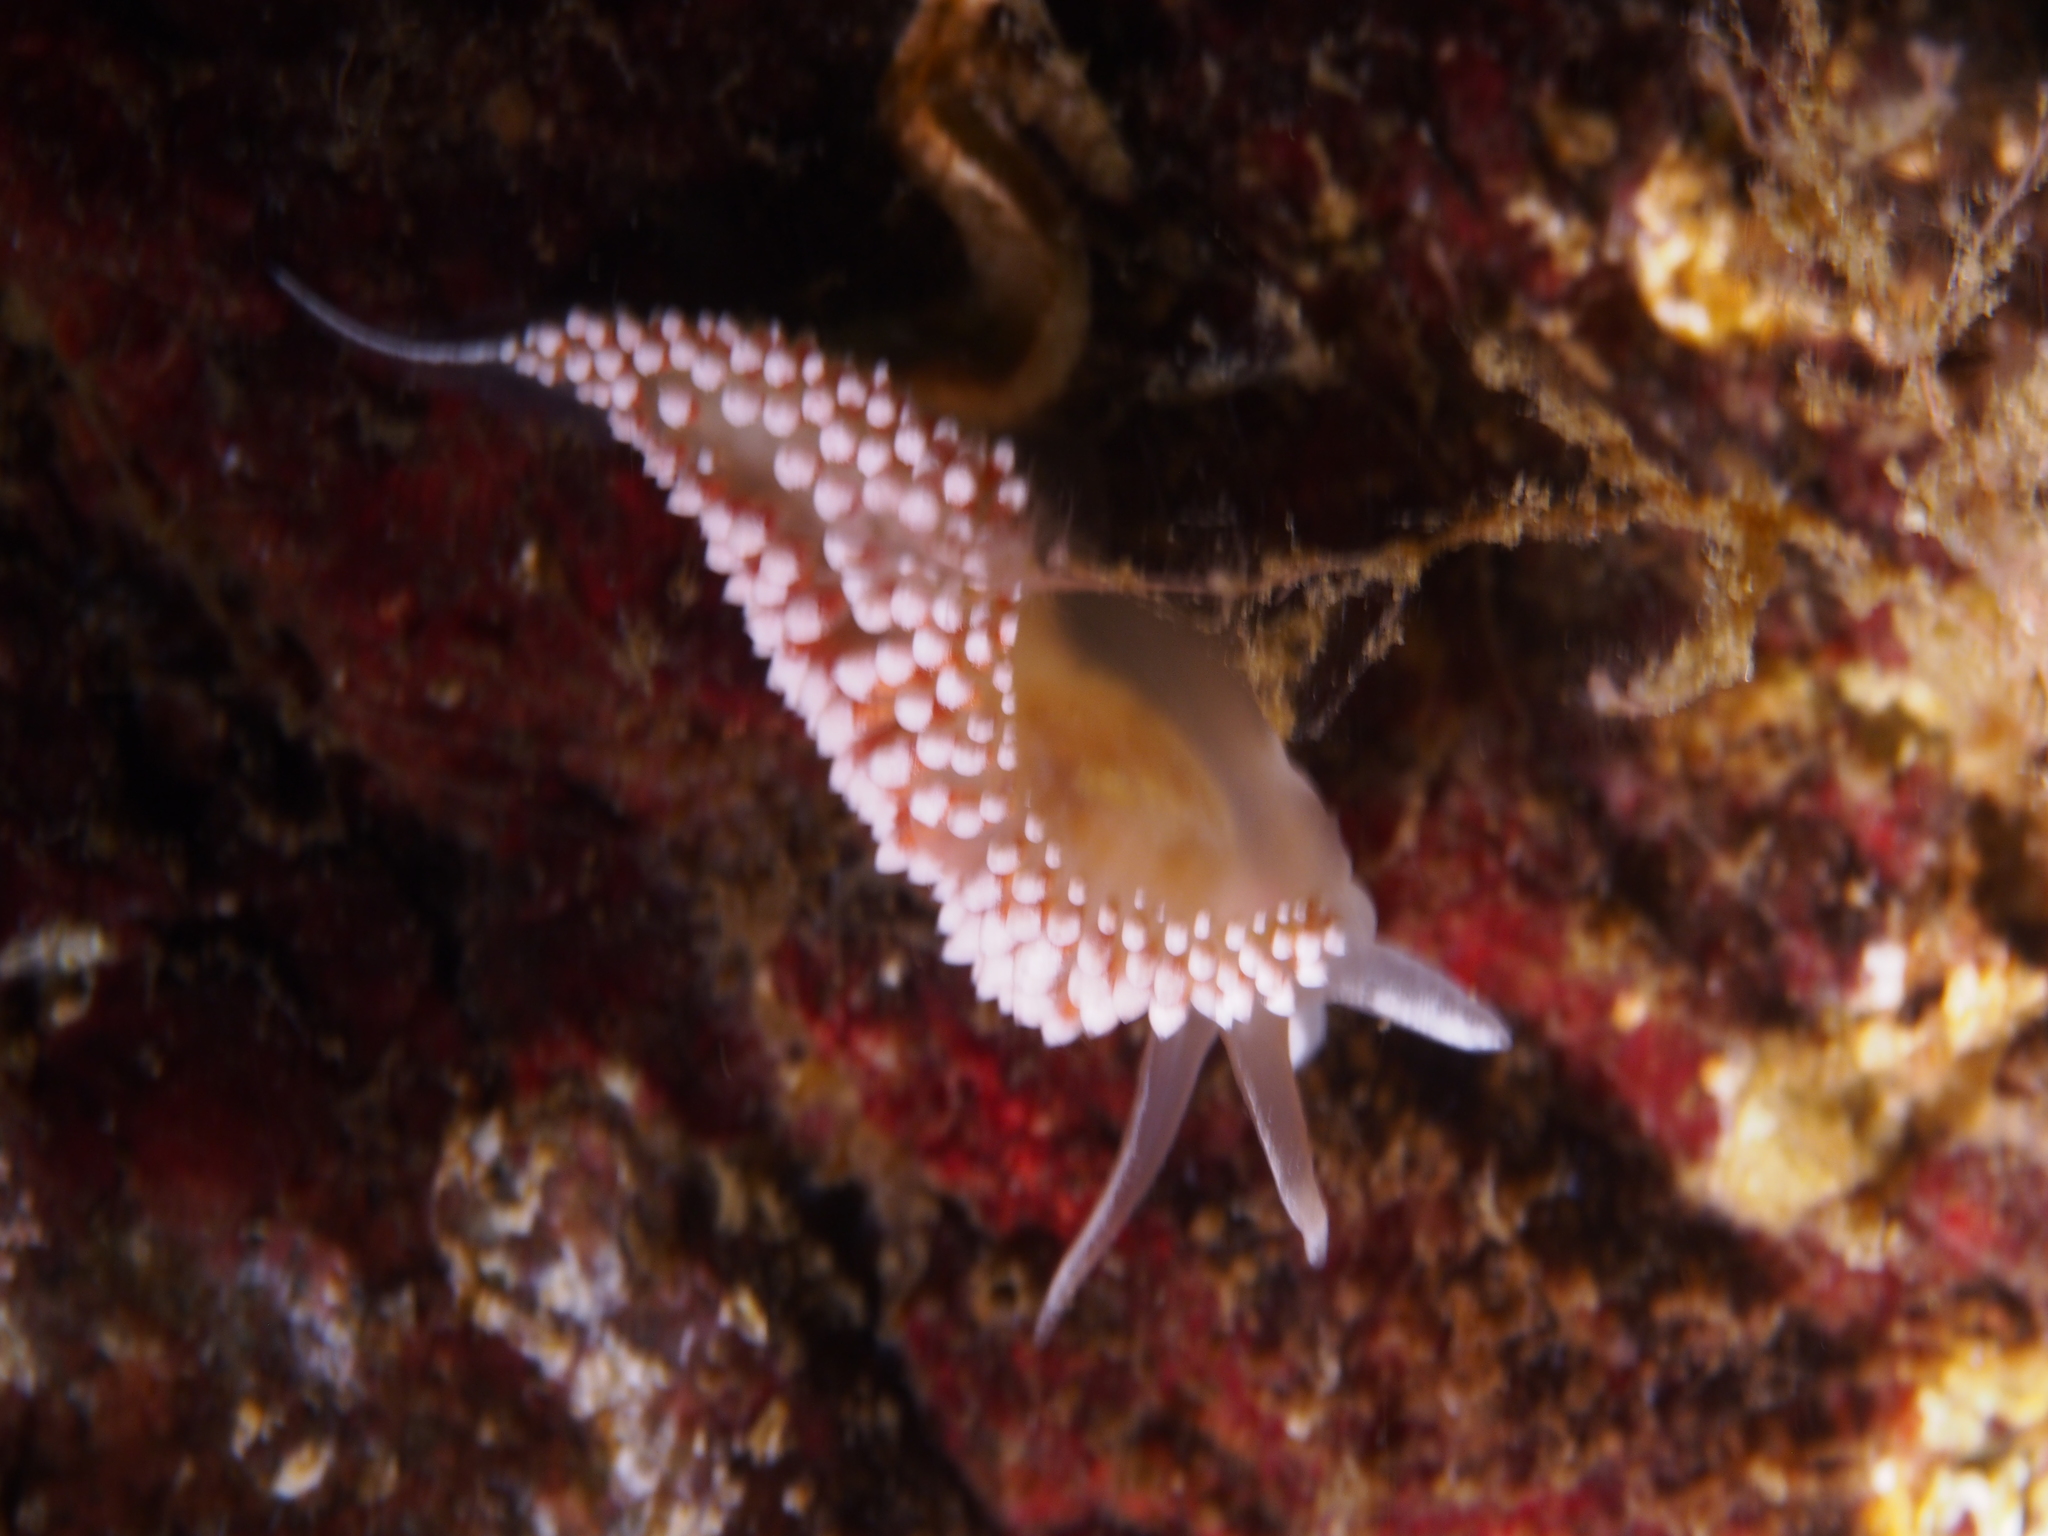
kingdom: Animalia
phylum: Mollusca
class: Gastropoda
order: Nudibranchia
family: Coryphellidae
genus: Coryphella
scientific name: Coryphella verrucosa
